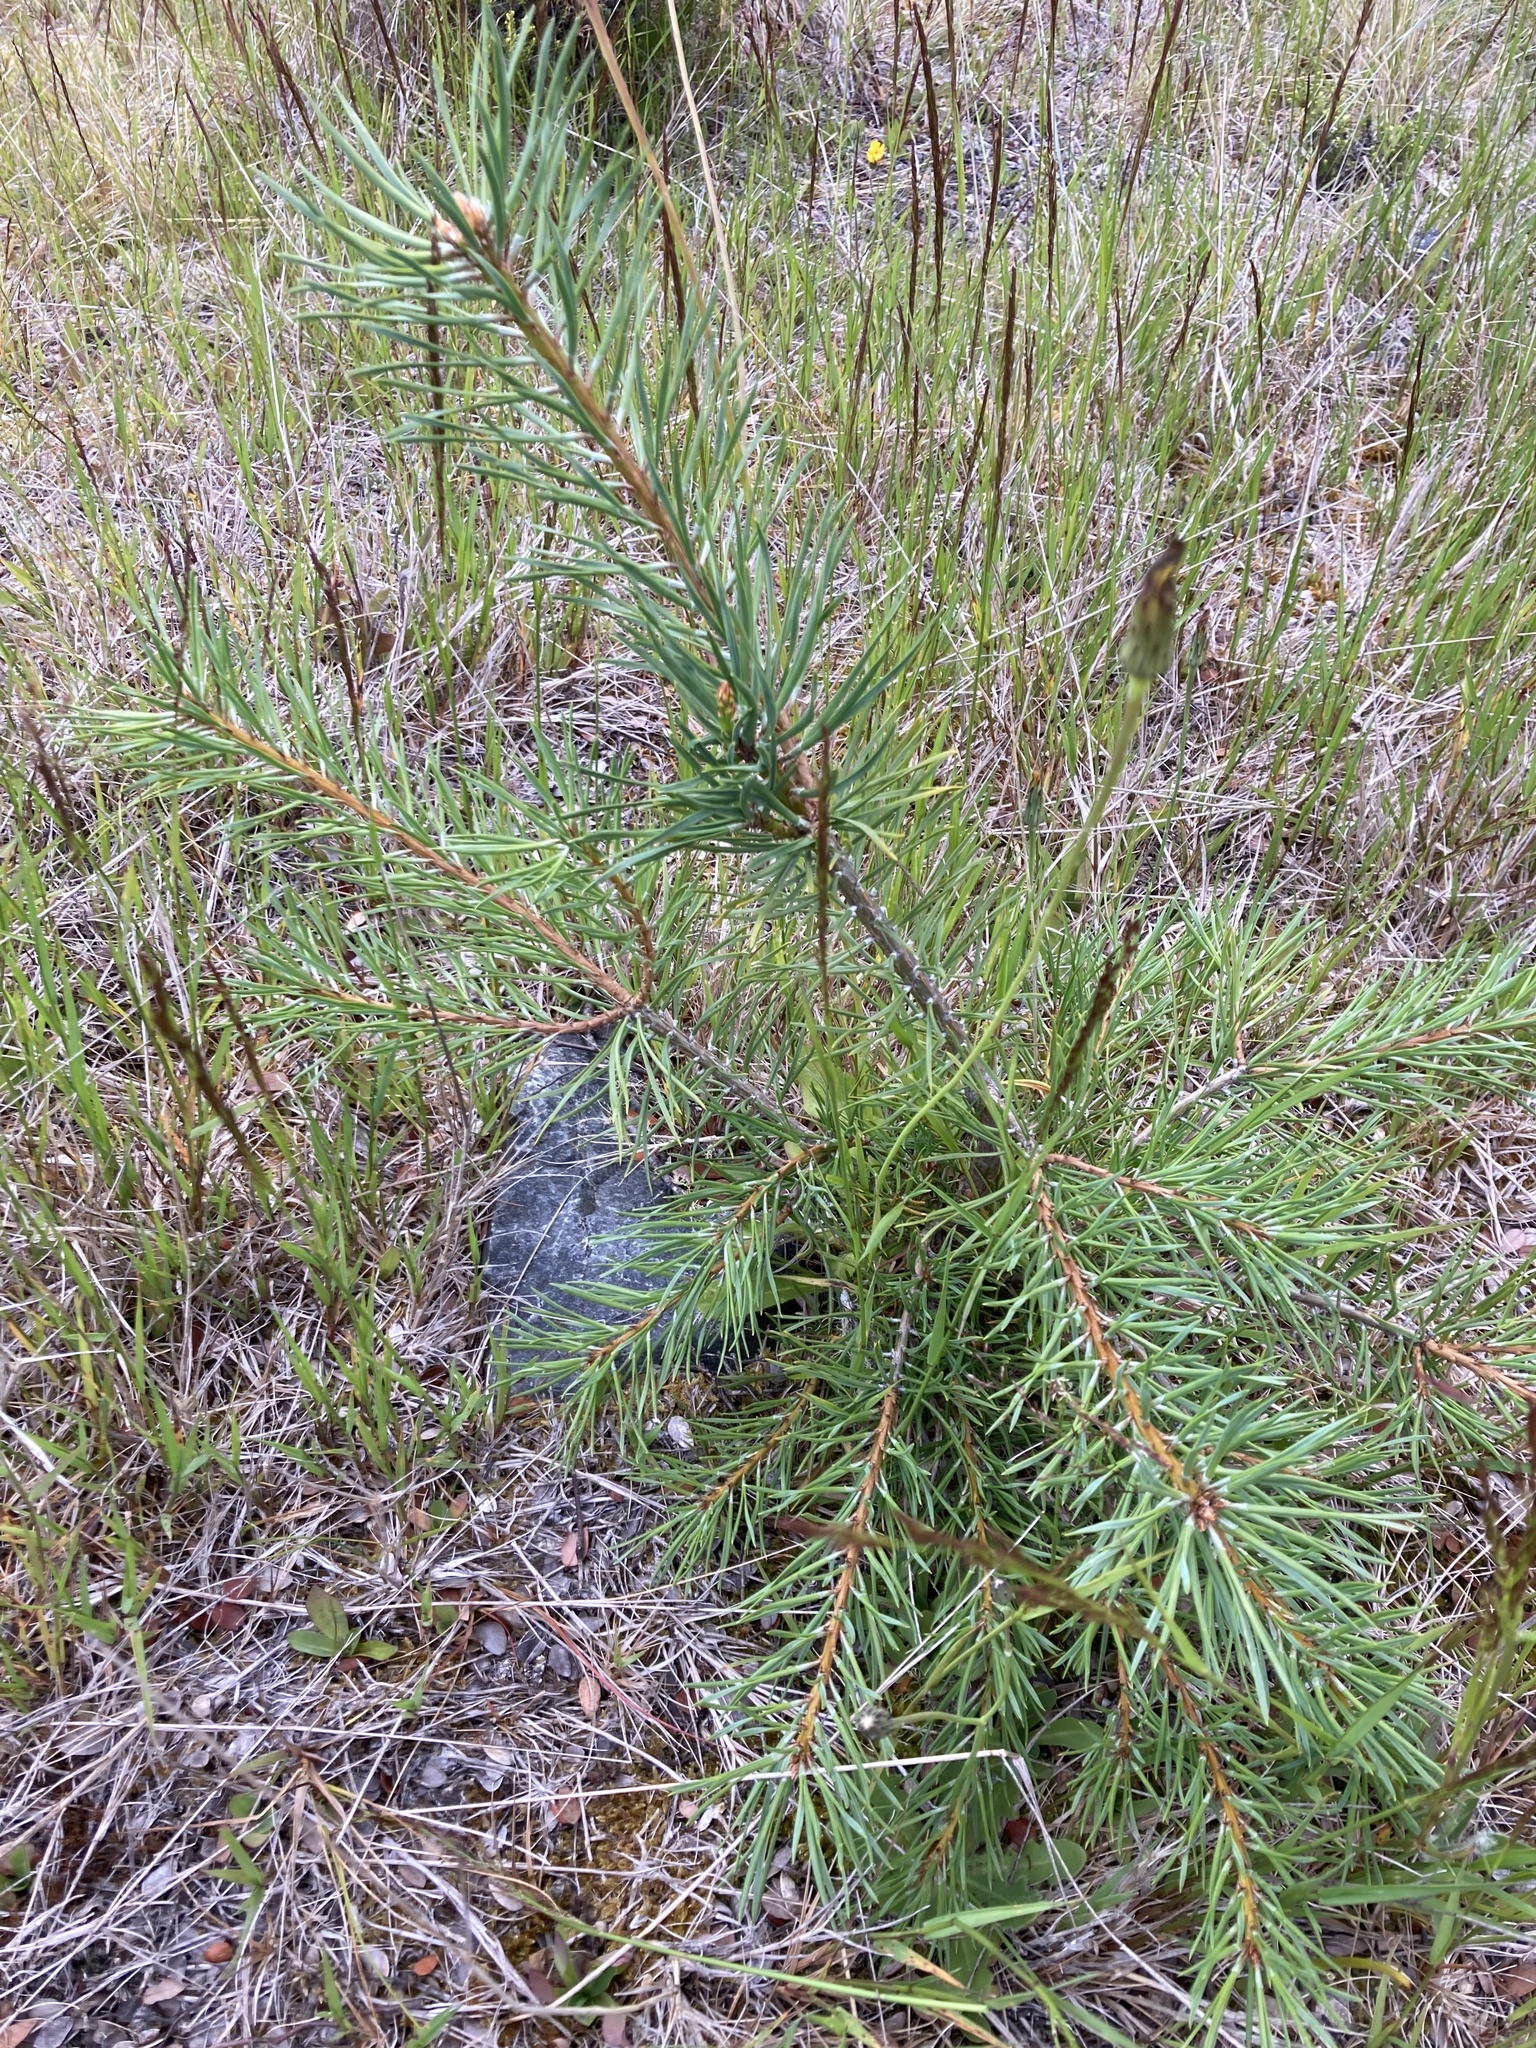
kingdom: Plantae
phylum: Tracheophyta
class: Pinopsida
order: Pinales
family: Pinaceae
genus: Pinus
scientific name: Pinus sylvestris
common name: Scots pine
